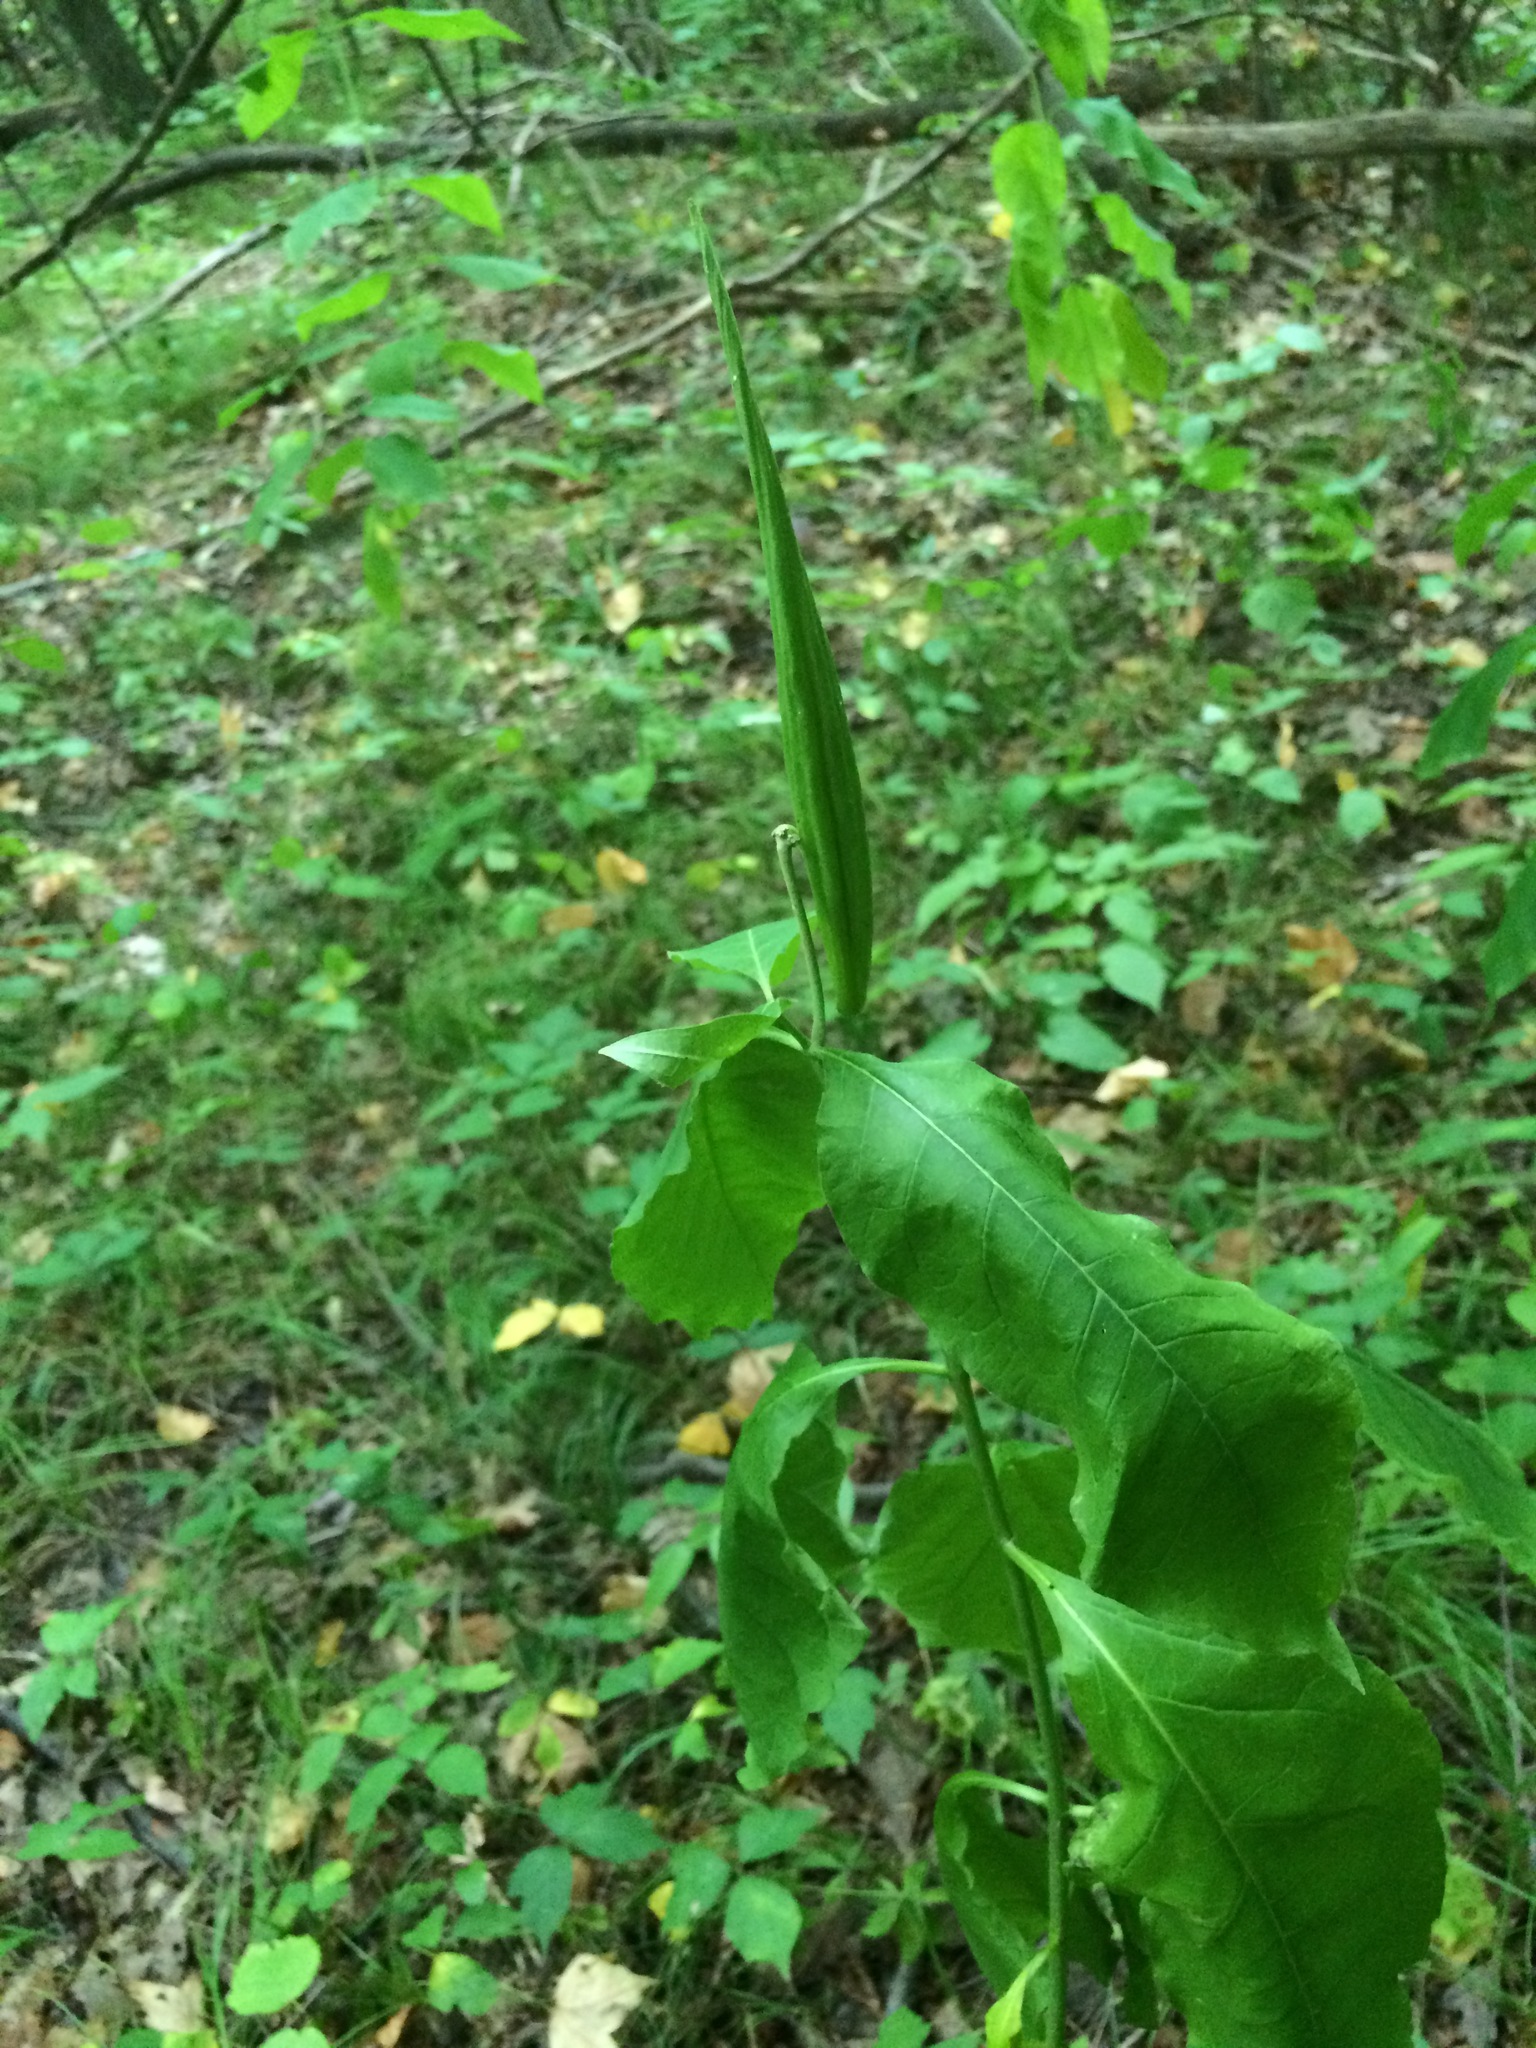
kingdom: Plantae
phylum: Tracheophyta
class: Magnoliopsida
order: Gentianales
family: Apocynaceae
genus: Asclepias
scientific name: Asclepias exaltata
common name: Poke milkweed
